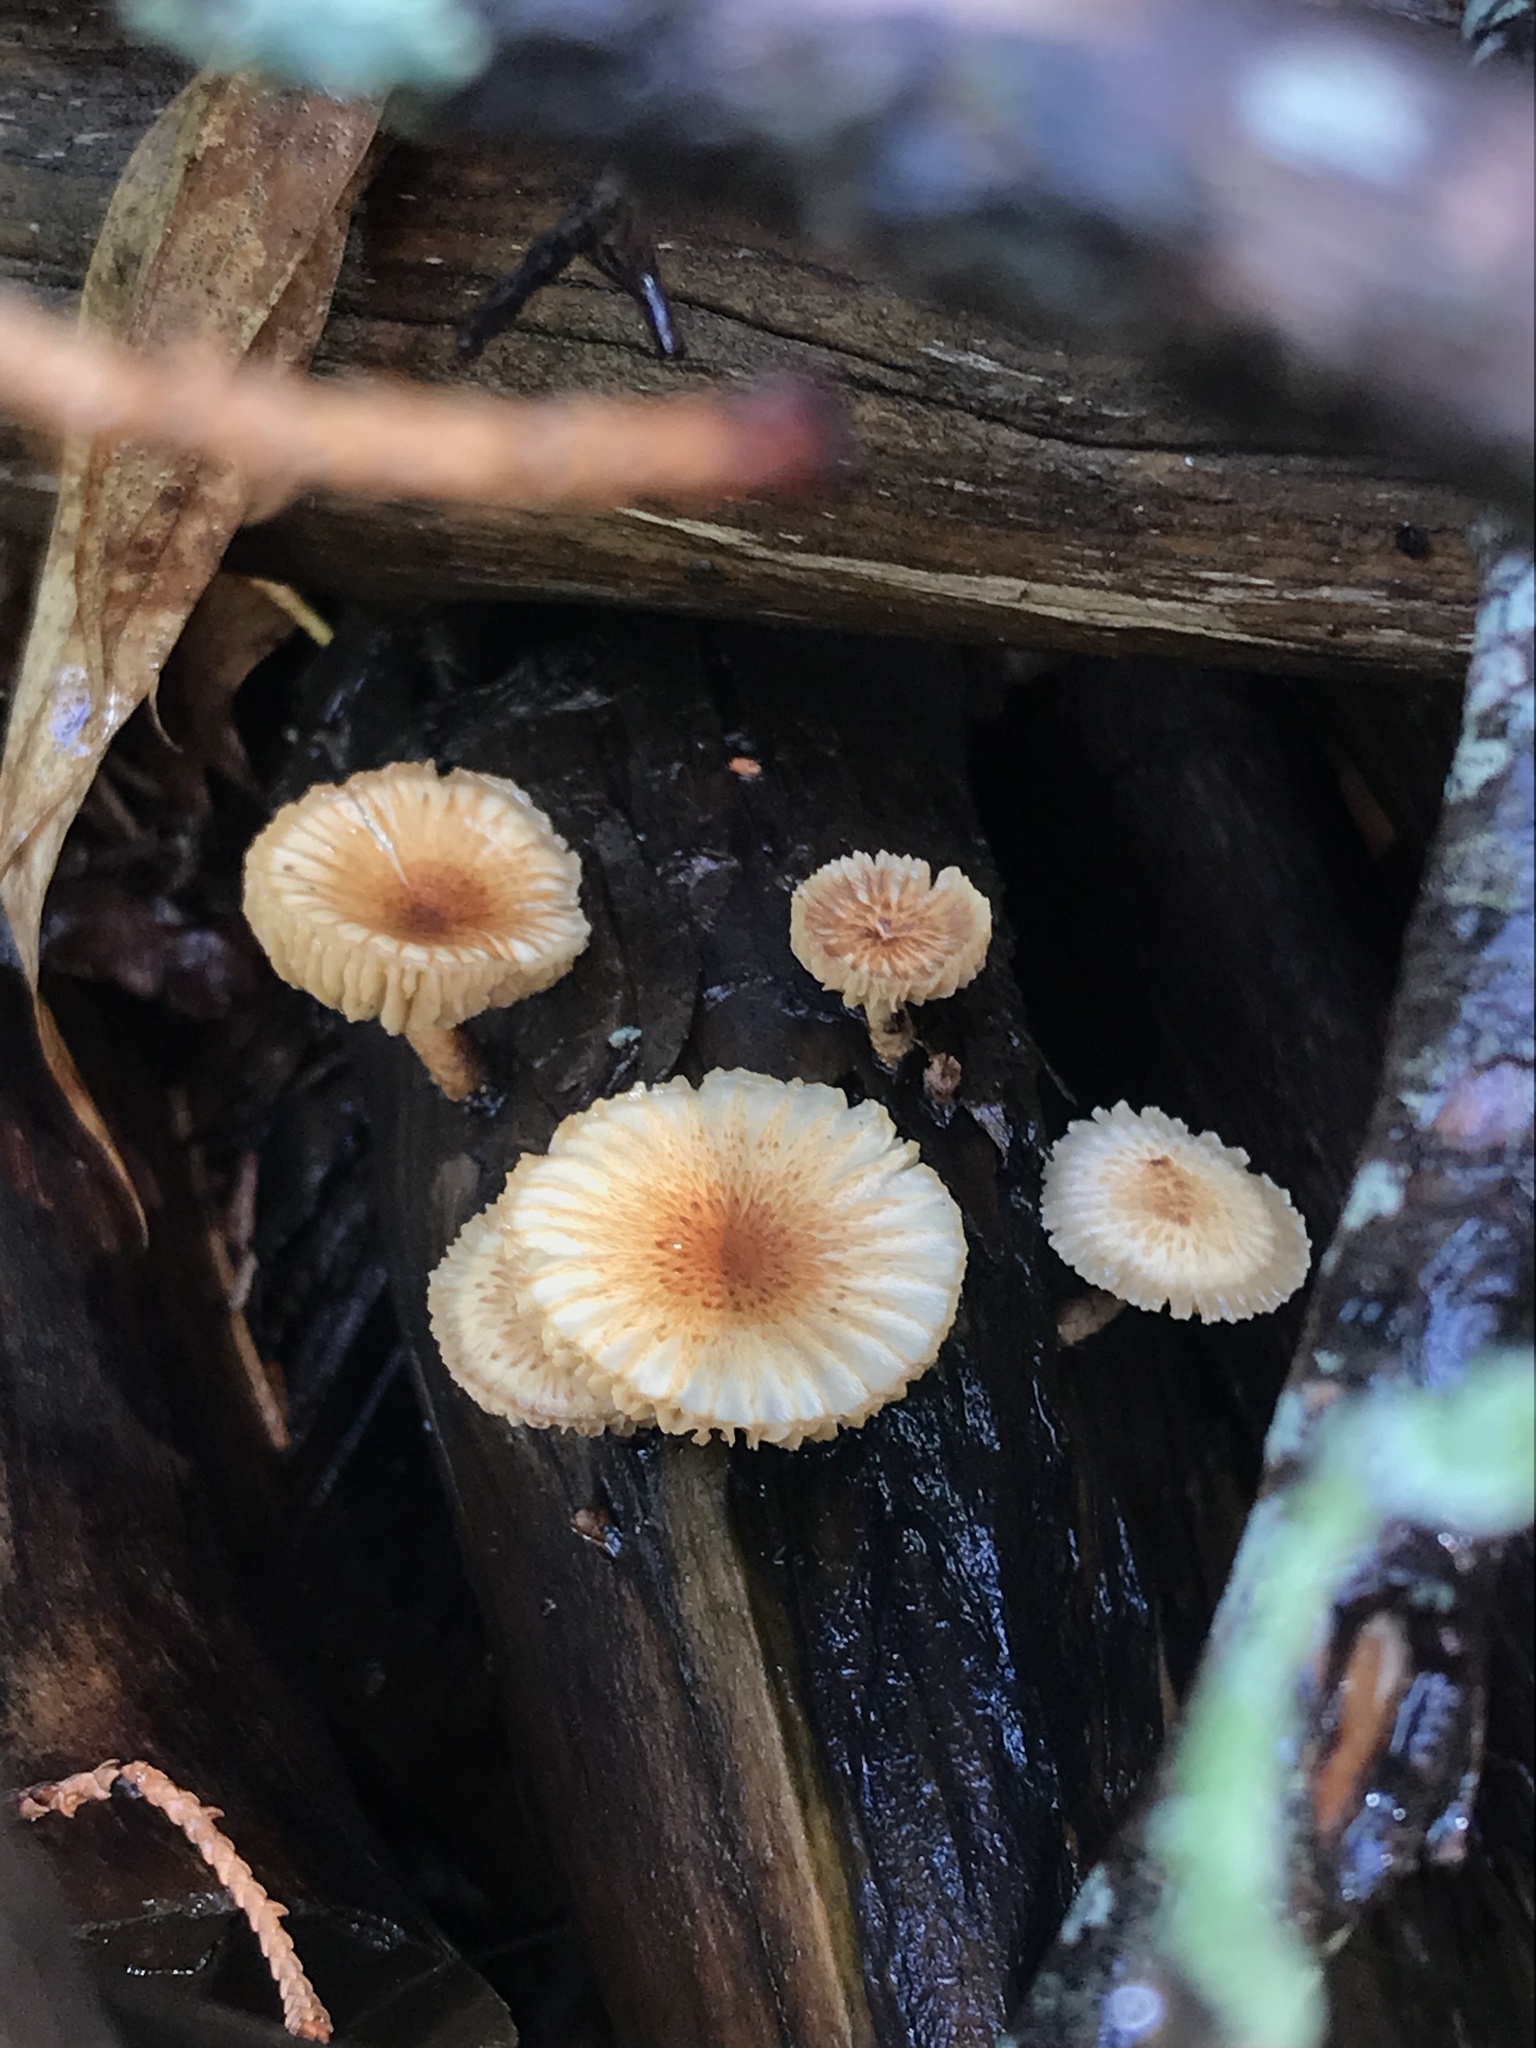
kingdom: Fungi
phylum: Basidiomycota
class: Agaricomycetes
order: Gloeophyllales
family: Gloeophyllaceae
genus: Heliocybe
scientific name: Heliocybe sulcata
